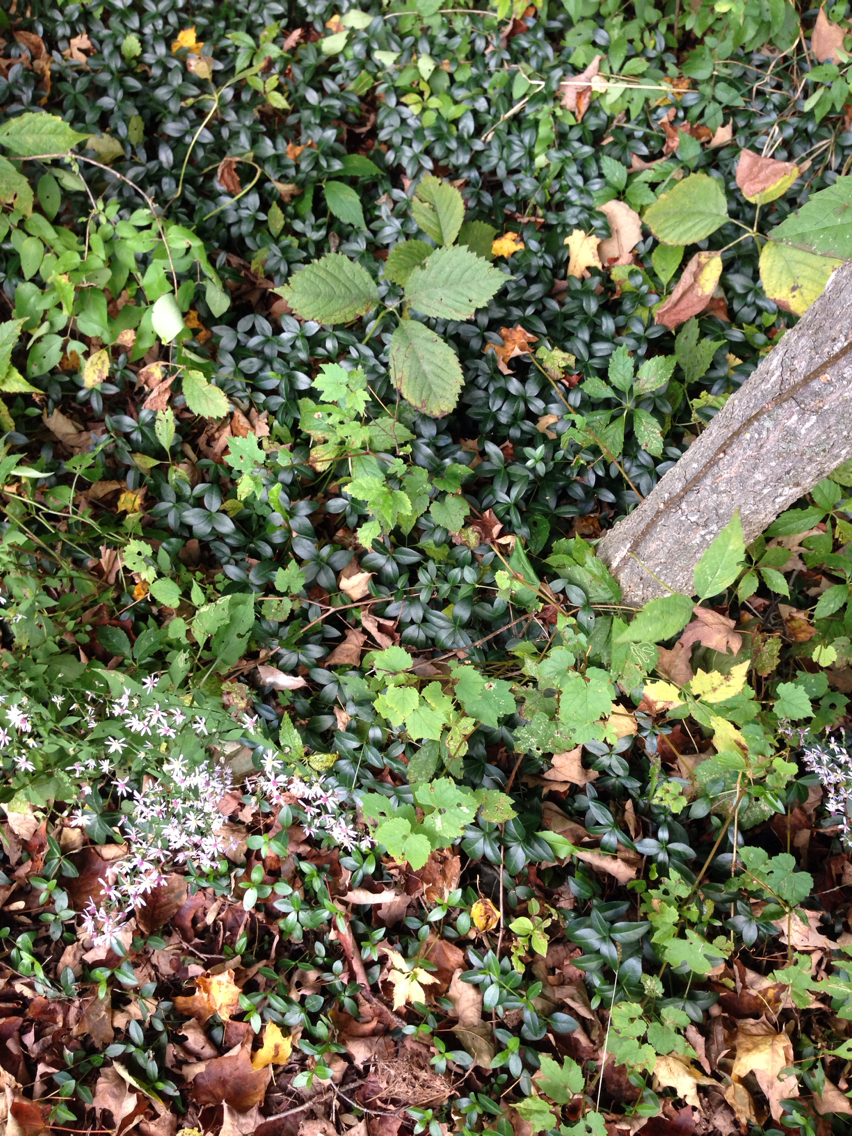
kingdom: Plantae
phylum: Tracheophyta
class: Magnoliopsida
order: Gentianales
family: Apocynaceae
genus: Vinca
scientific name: Vinca minor
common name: Lesser periwinkle
